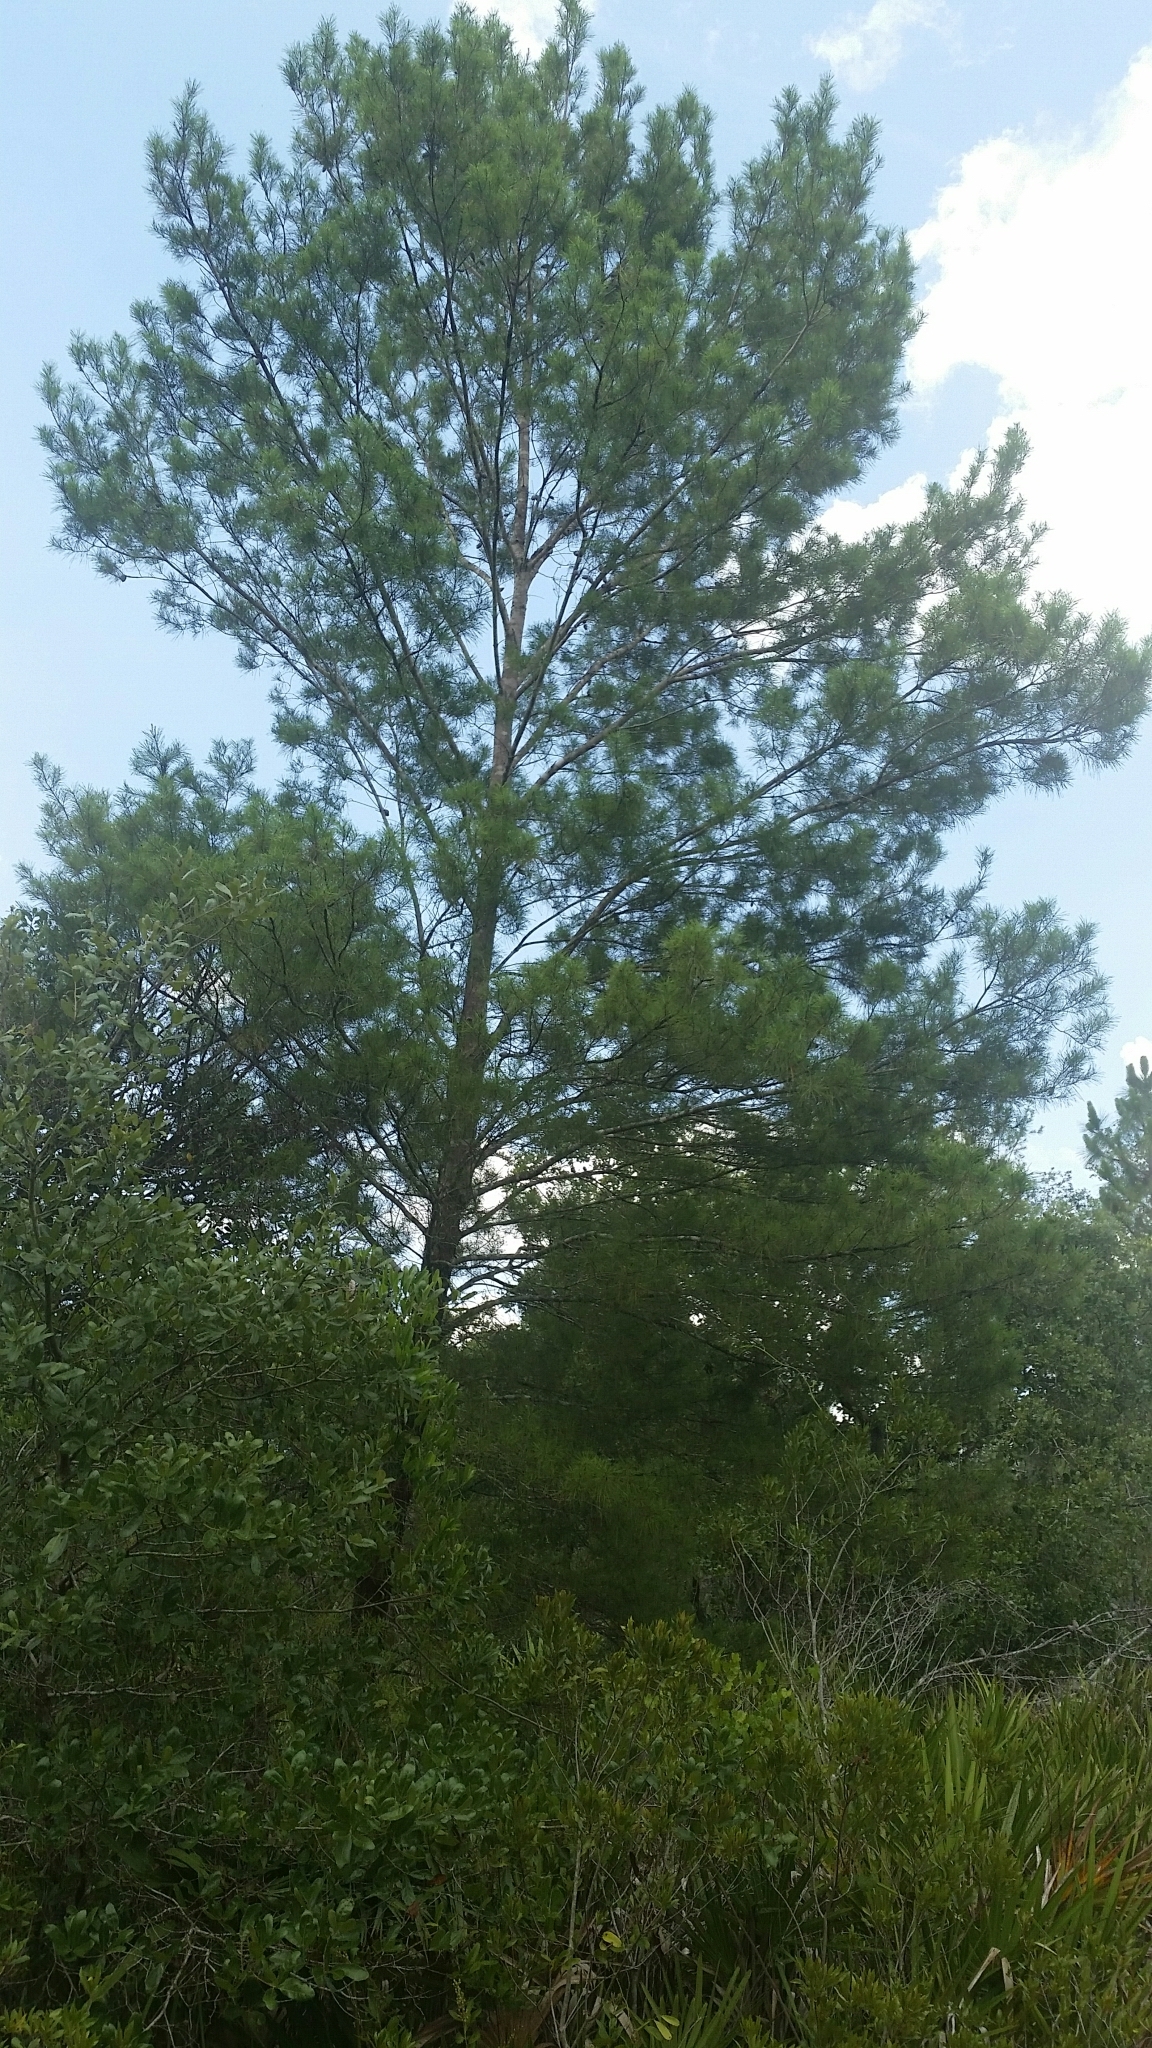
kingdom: Plantae
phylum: Tracheophyta
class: Pinopsida
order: Pinales
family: Pinaceae
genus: Pinus
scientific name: Pinus clausa
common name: Sand pine
